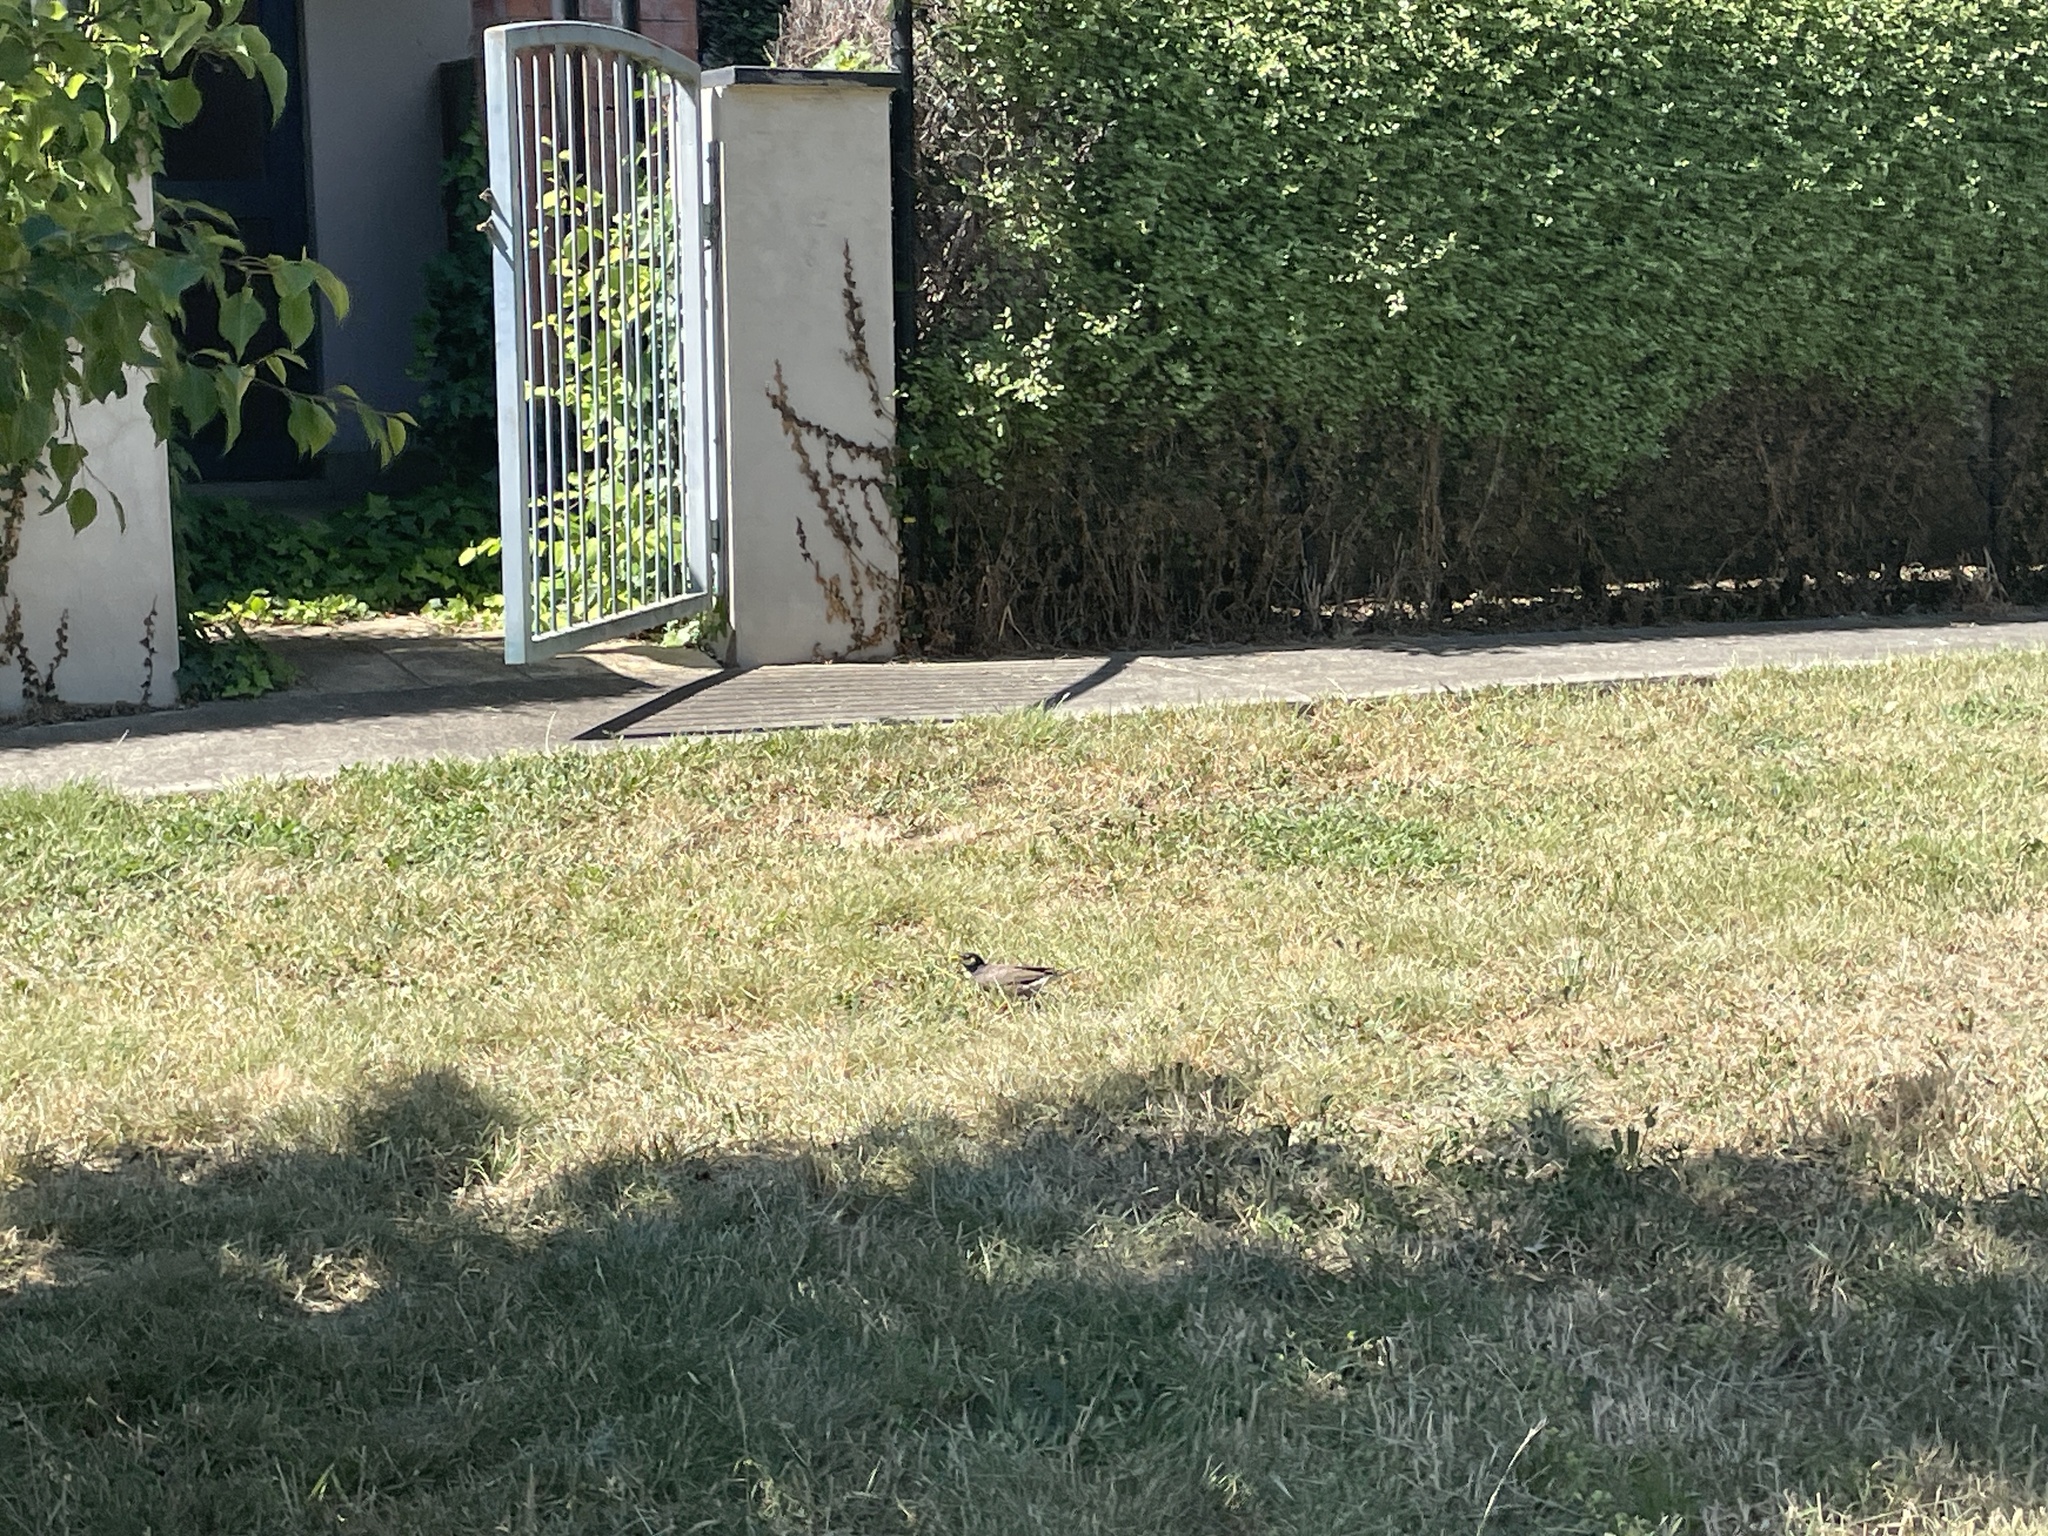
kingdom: Animalia
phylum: Chordata
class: Aves
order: Passeriformes
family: Sturnidae
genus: Acridotheres
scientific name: Acridotheres tristis
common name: Common myna
